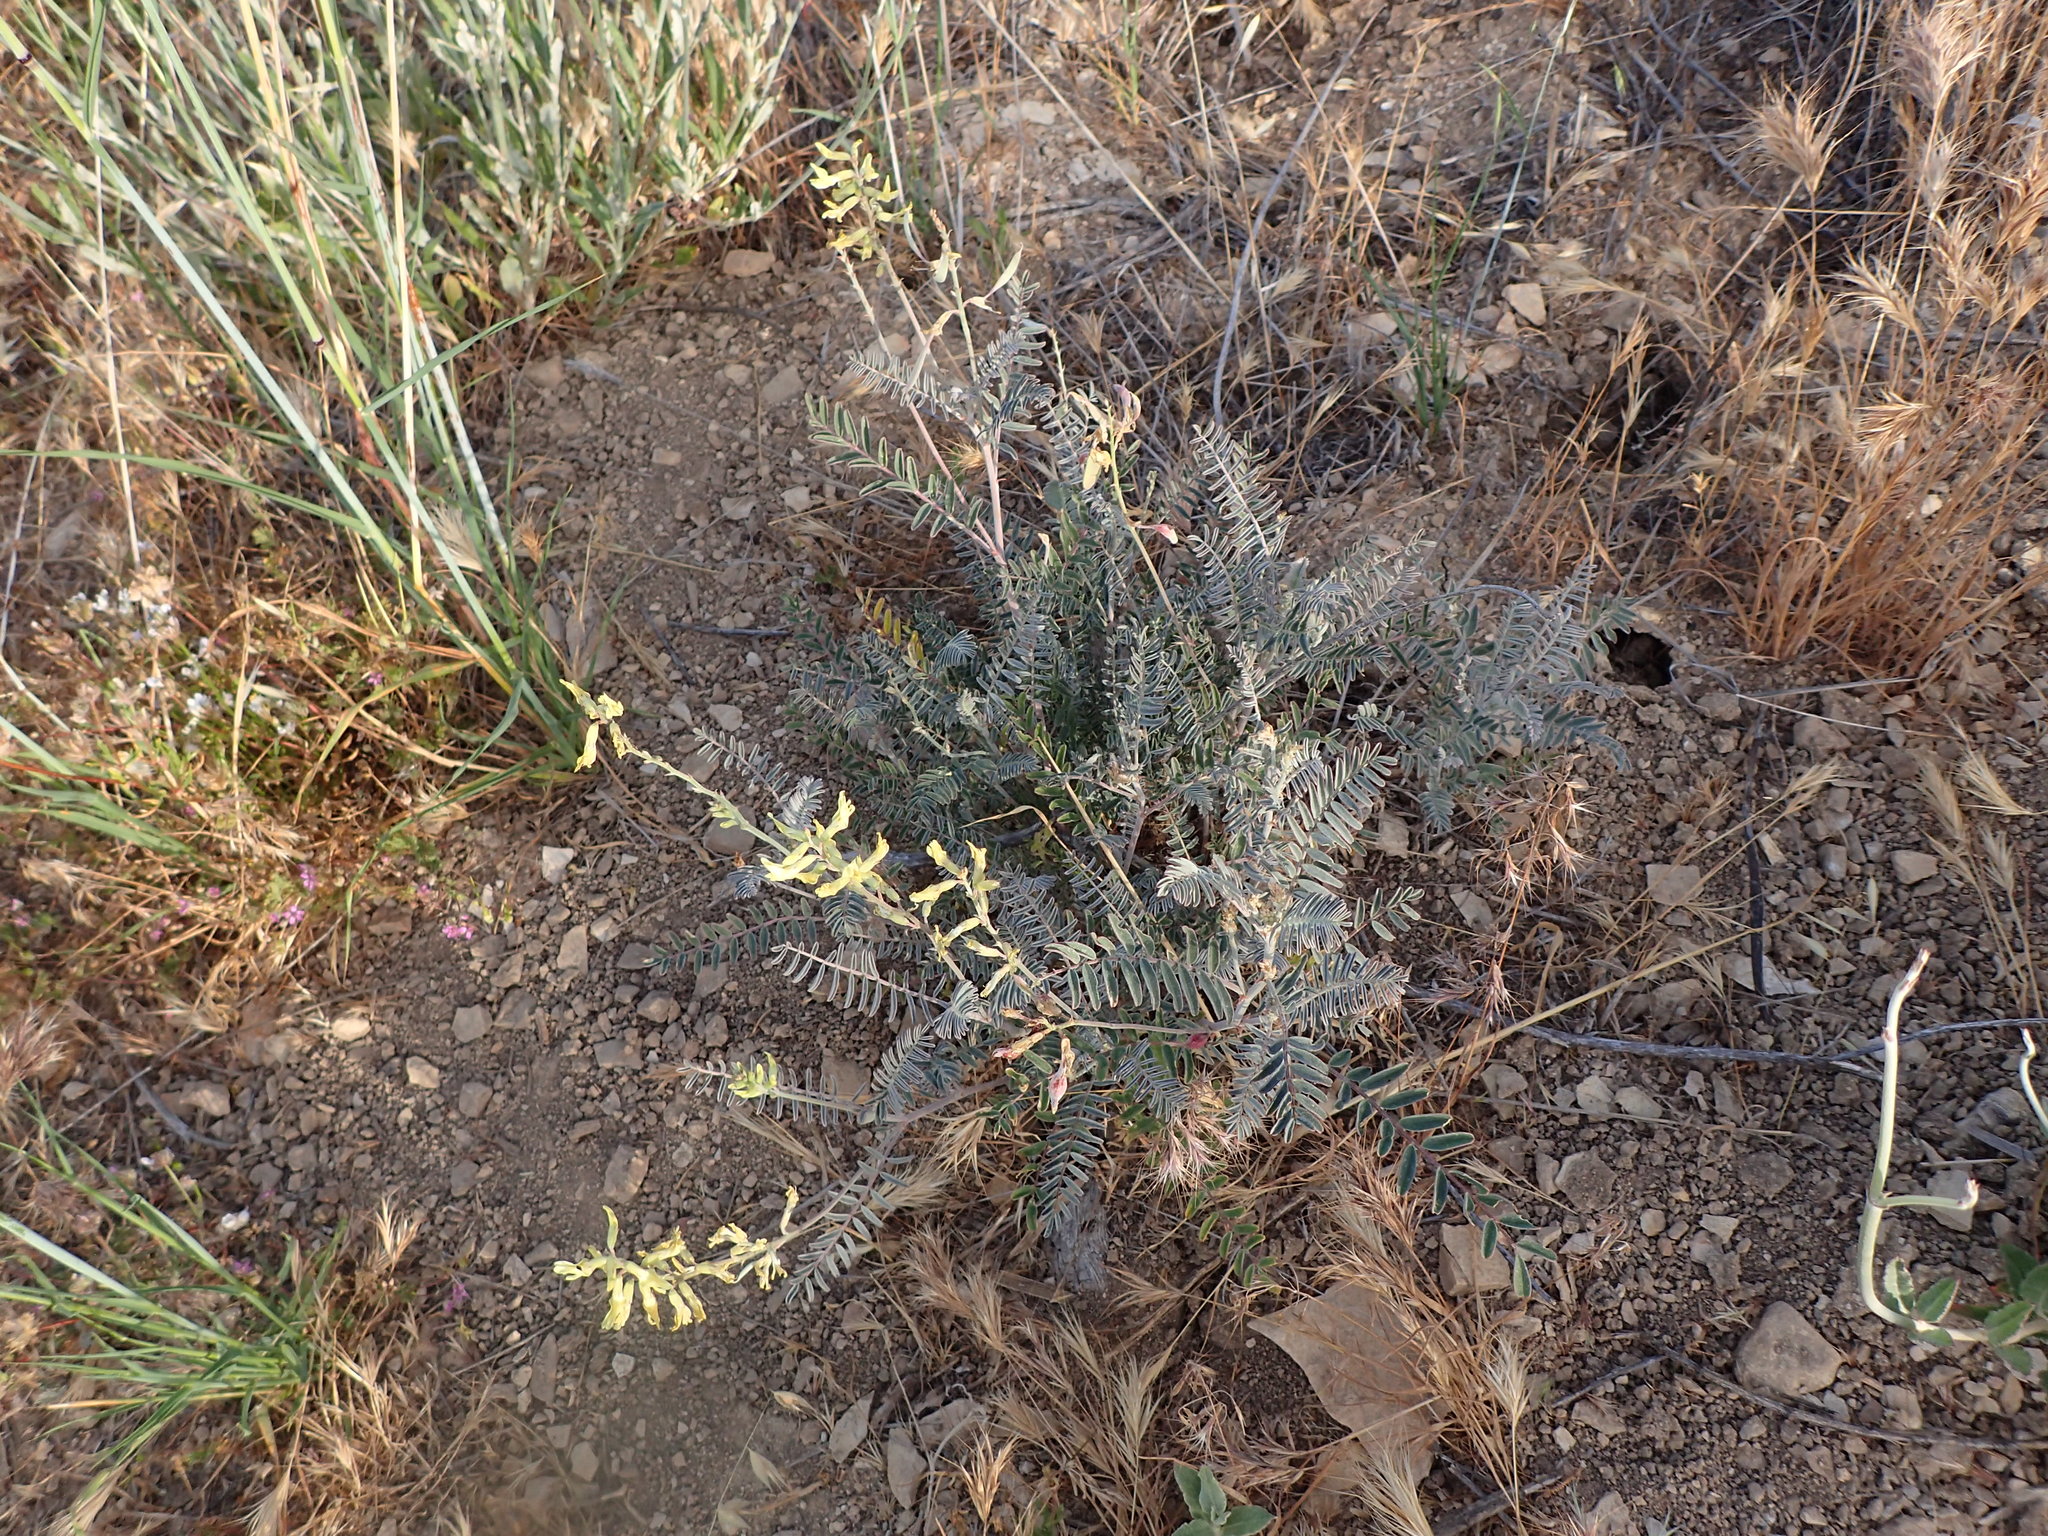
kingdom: Plantae
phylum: Tracheophyta
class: Magnoliopsida
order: Fabales
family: Fabaceae
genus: Astragalus
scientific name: Astragalus trichopodus
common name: Santa barbara milk-vetch
